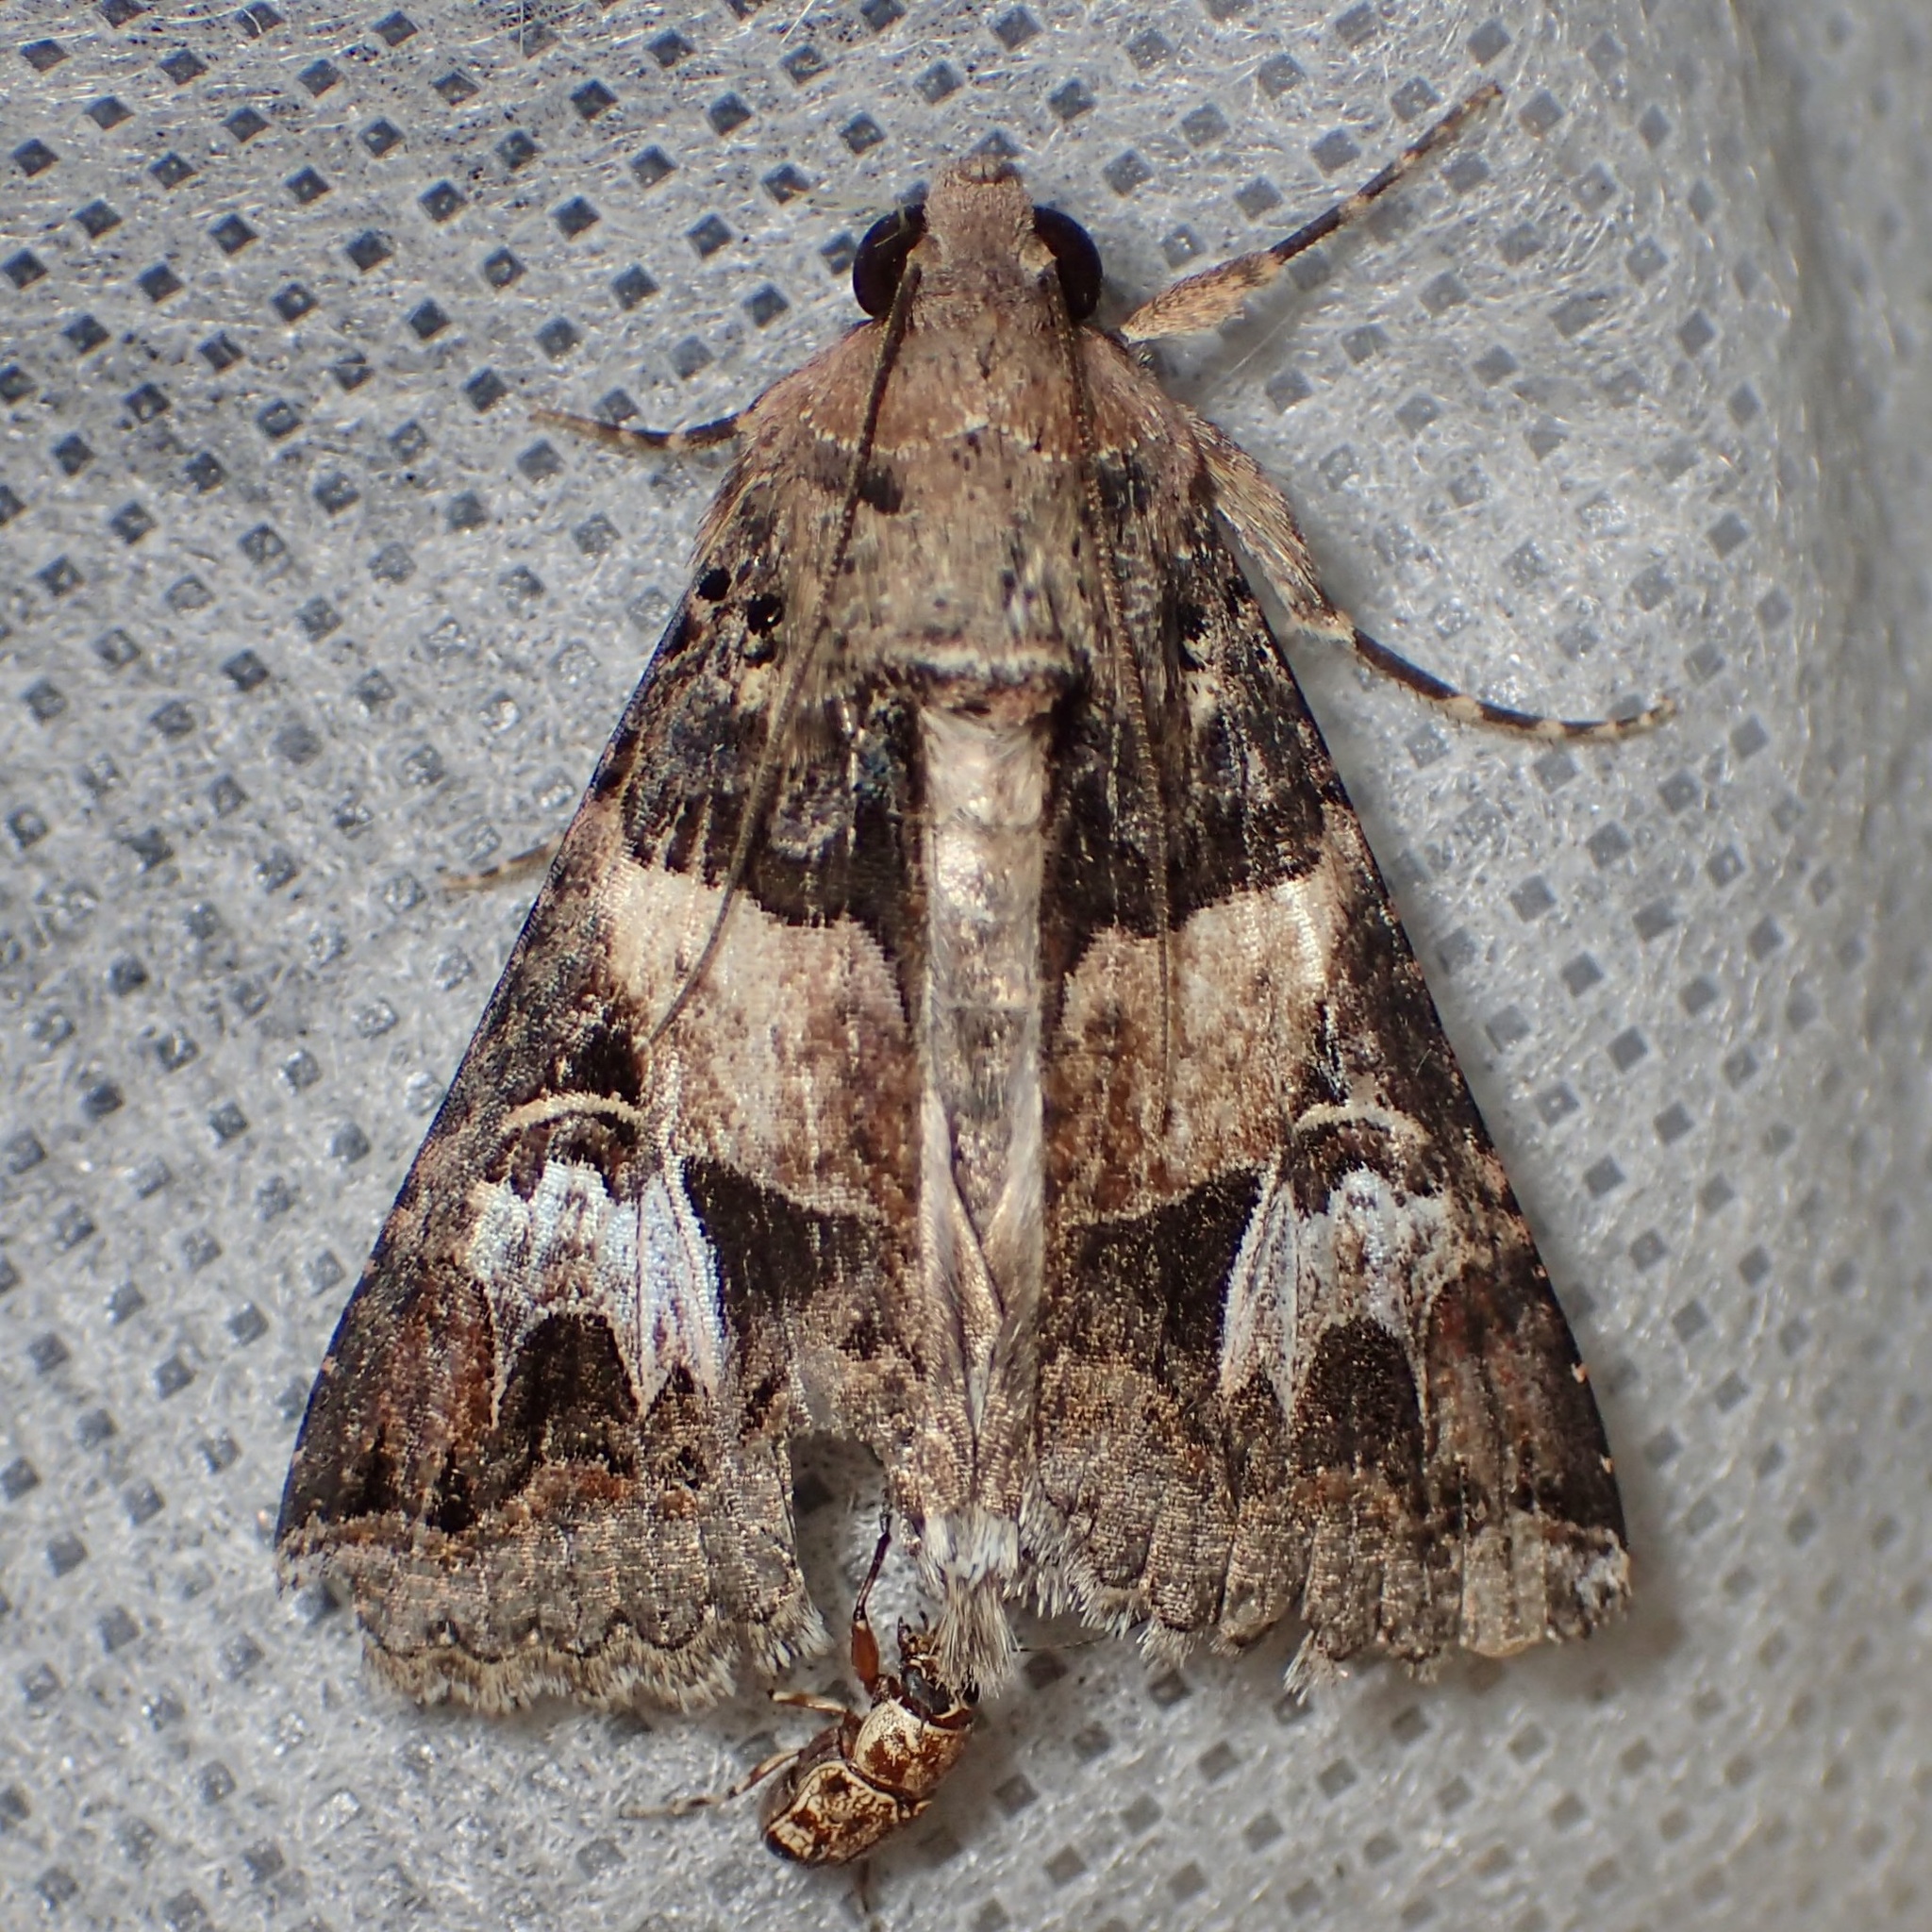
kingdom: Animalia
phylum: Arthropoda
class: Insecta
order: Lepidoptera
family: Erebidae
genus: Melipotis
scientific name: Melipotis novanda
